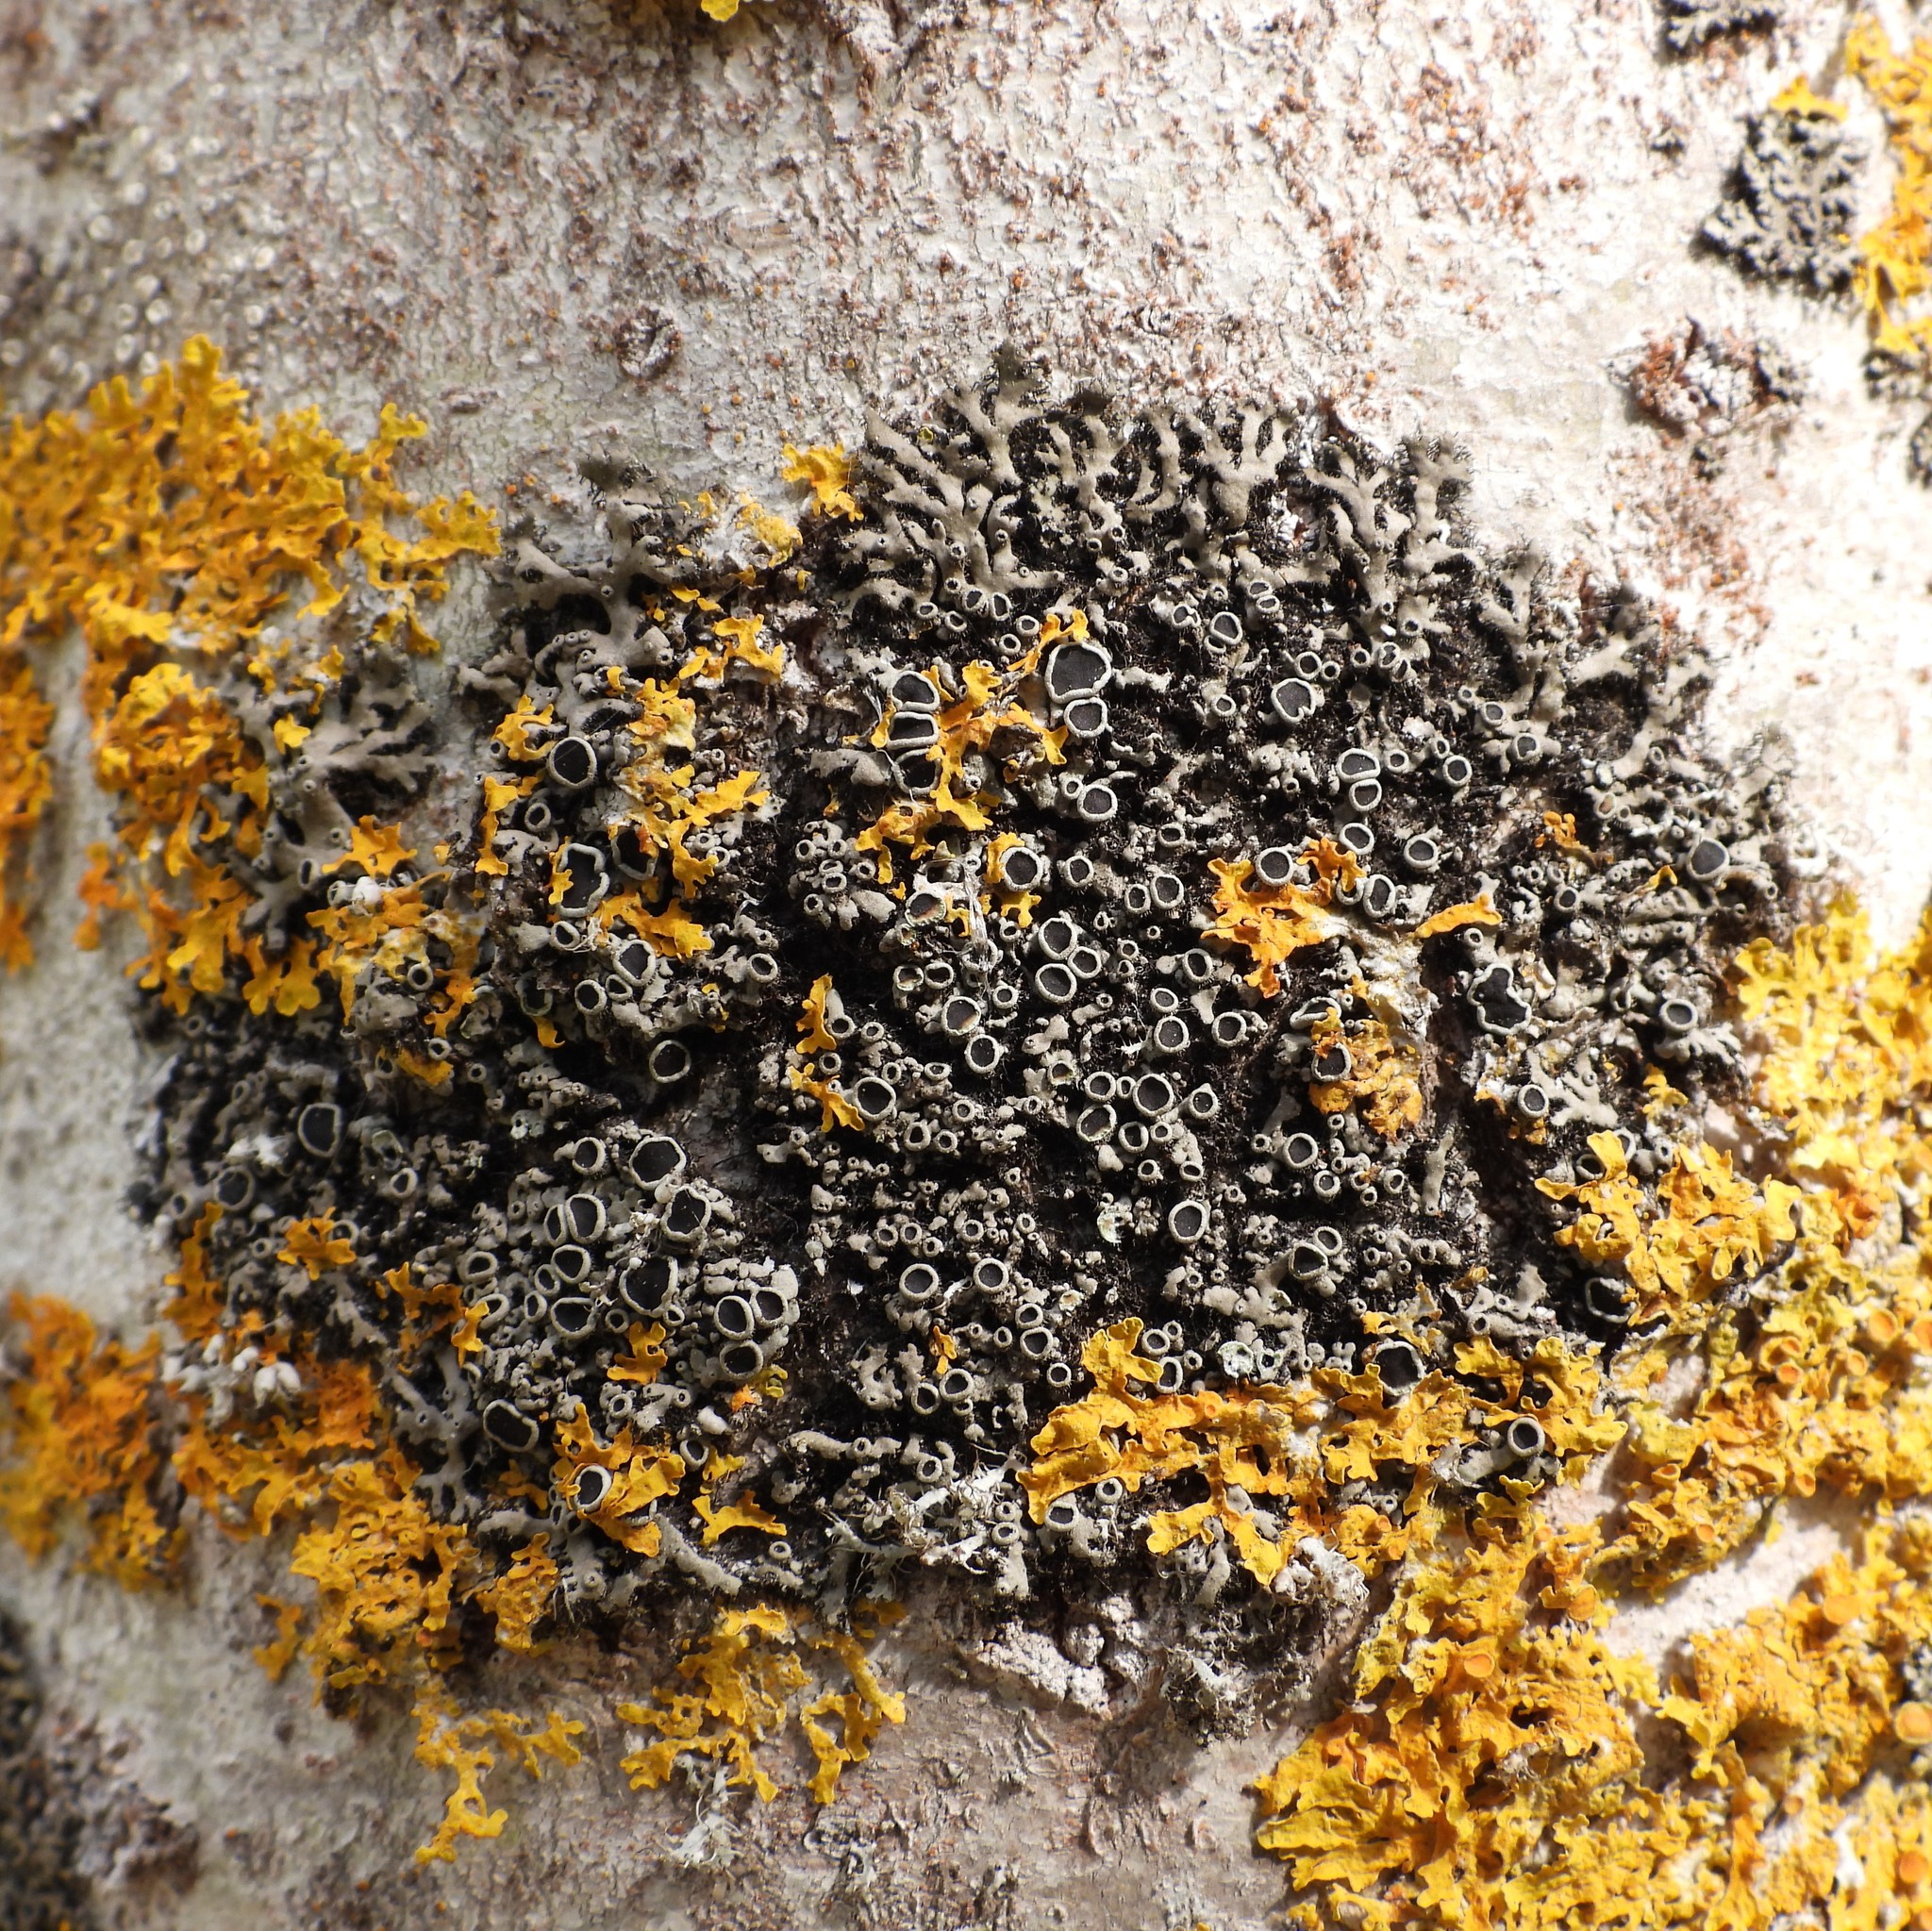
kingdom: Fungi
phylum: Ascomycota
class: Lecanoromycetes
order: Caliciales
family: Physciaceae
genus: Phaeophyscia
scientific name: Phaeophyscia ciliata
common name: Smooth shadow lichen
